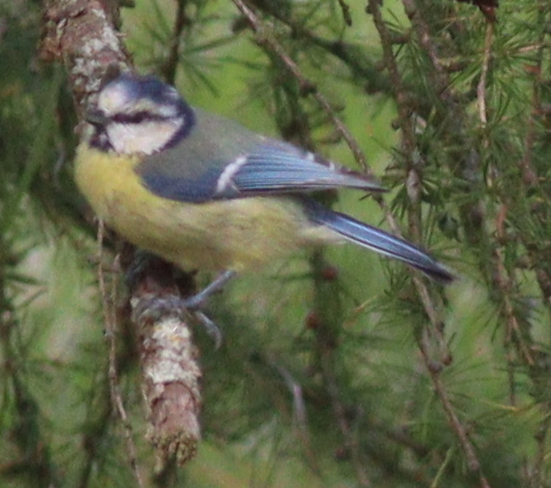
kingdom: Animalia
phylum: Chordata
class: Aves
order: Passeriformes
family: Paridae
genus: Cyanistes
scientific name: Cyanistes caeruleus
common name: Eurasian blue tit
